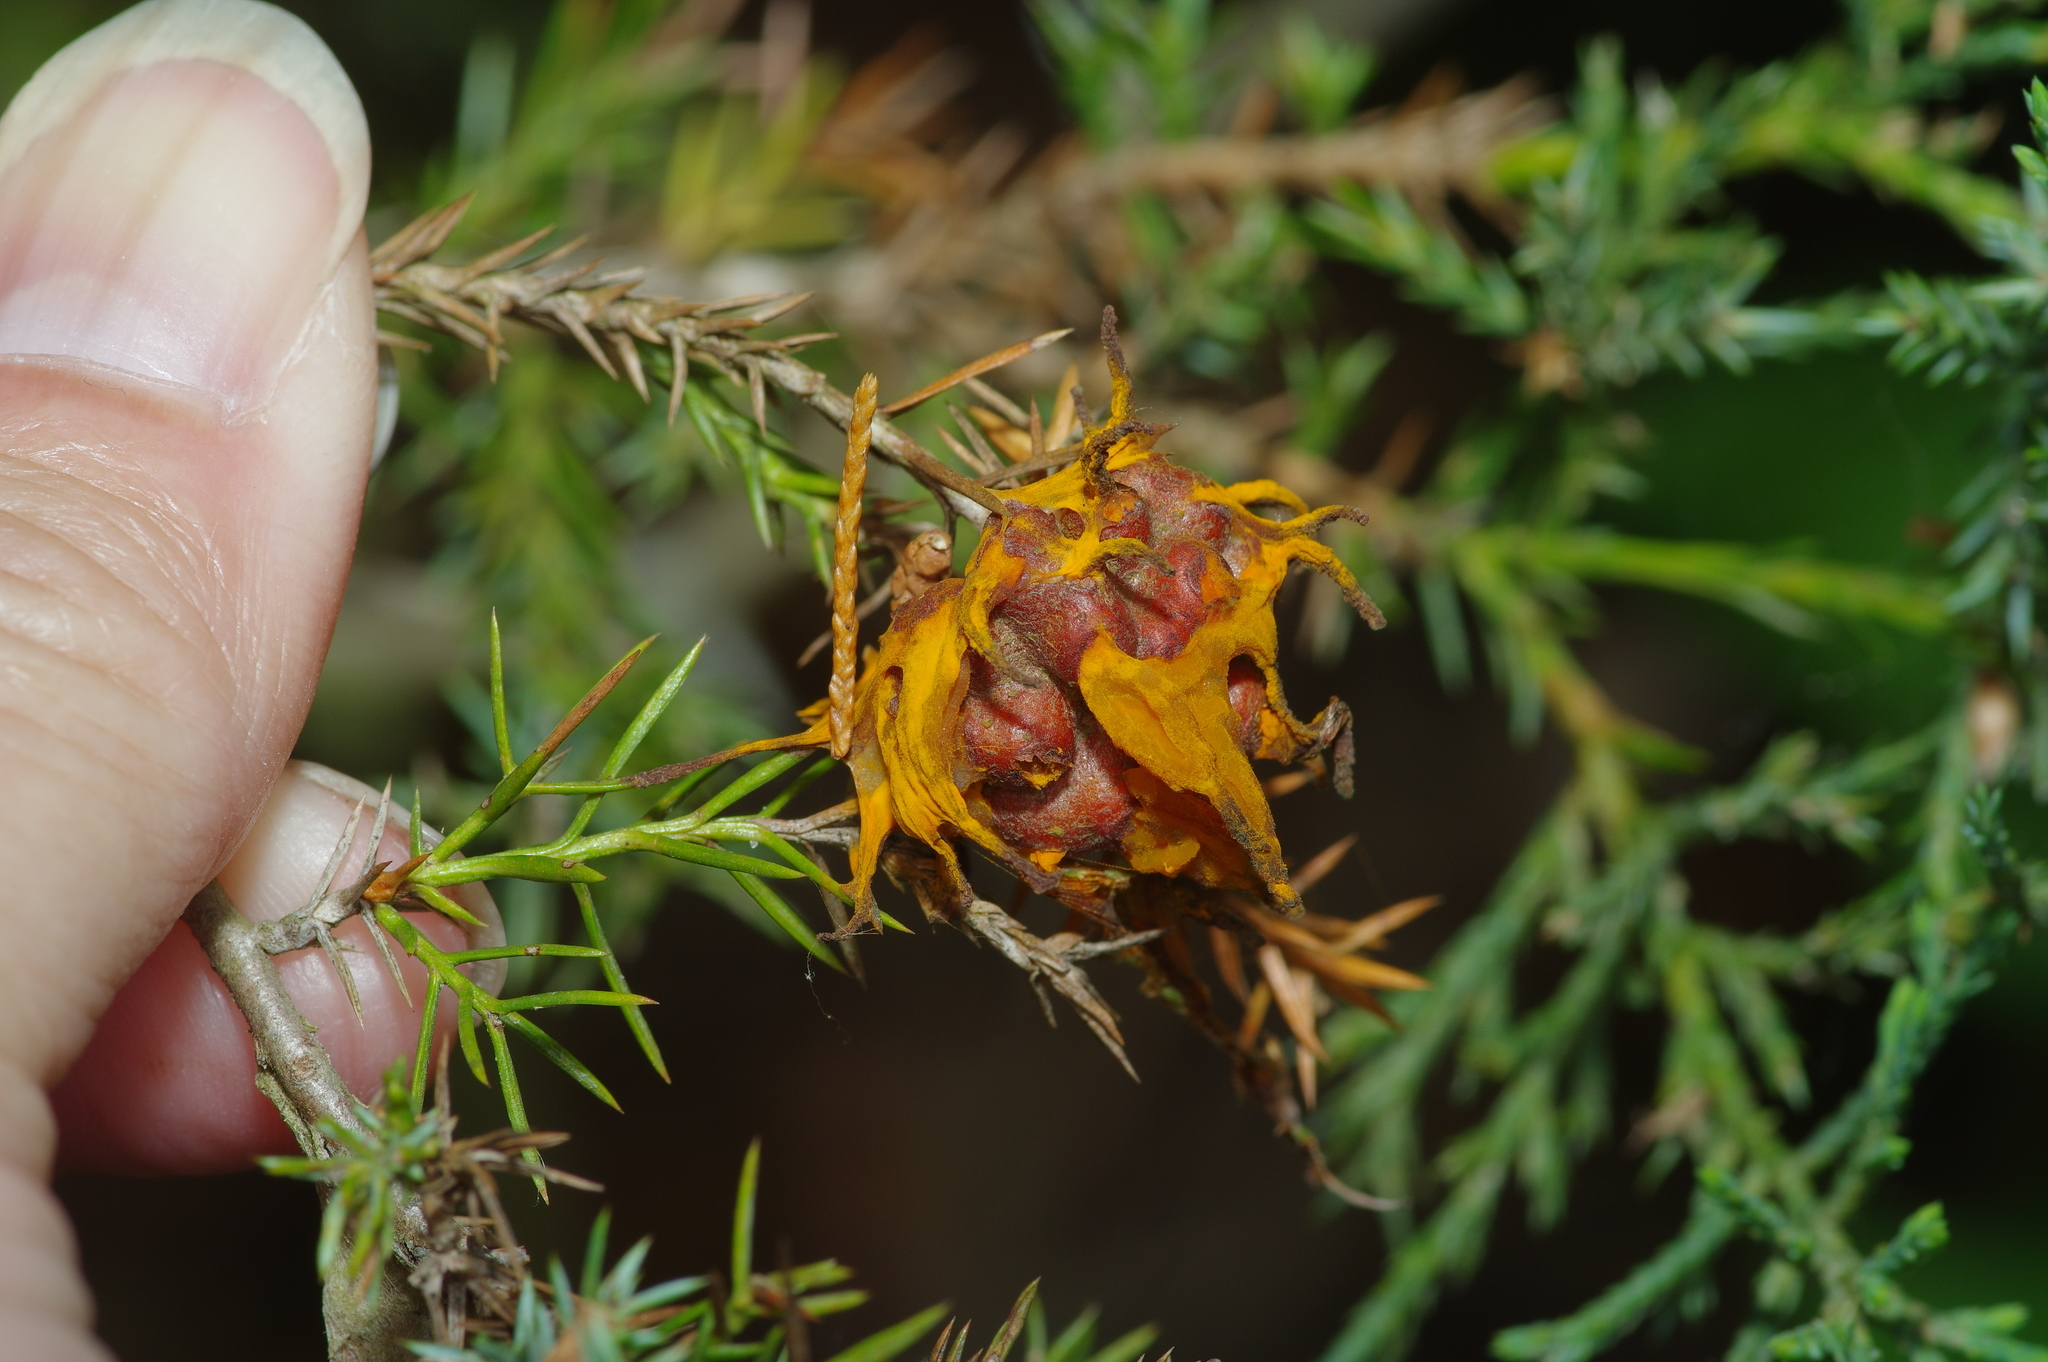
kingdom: Fungi
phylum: Basidiomycota
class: Pucciniomycetes
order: Pucciniales
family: Gymnosporangiaceae
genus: Gymnosporangium
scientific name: Gymnosporangium juniperi-virginianae
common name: Juniper-apple rust
